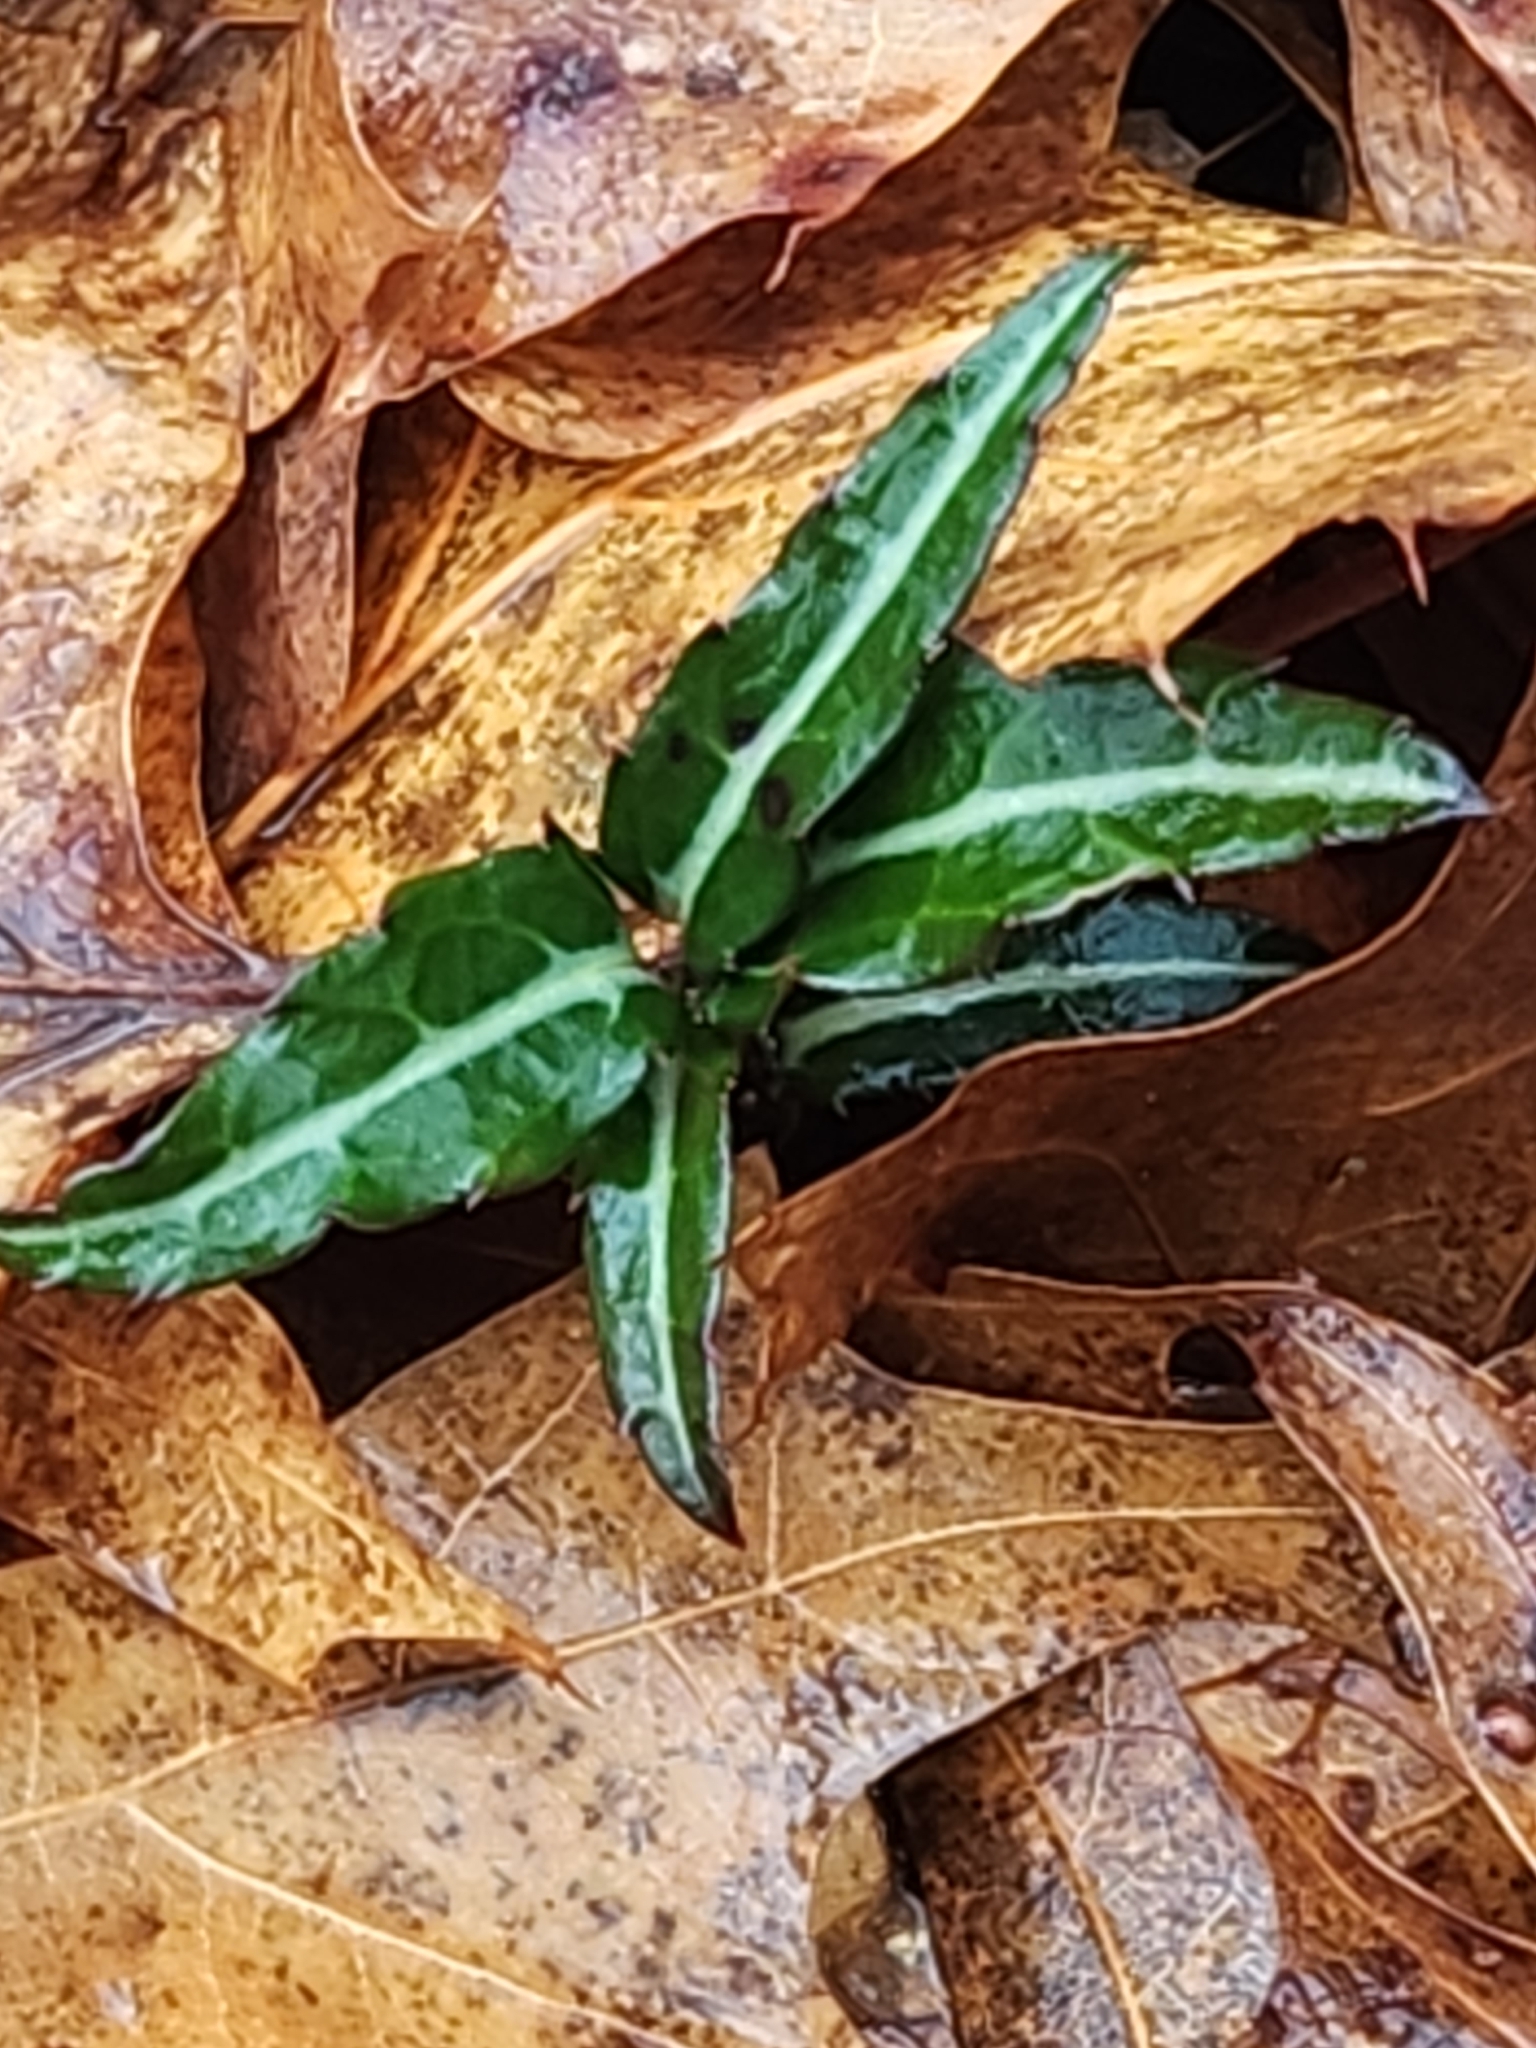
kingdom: Plantae
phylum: Tracheophyta
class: Magnoliopsida
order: Ericales
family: Ericaceae
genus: Chimaphila
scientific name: Chimaphila maculata
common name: Spotted pipsissewa
